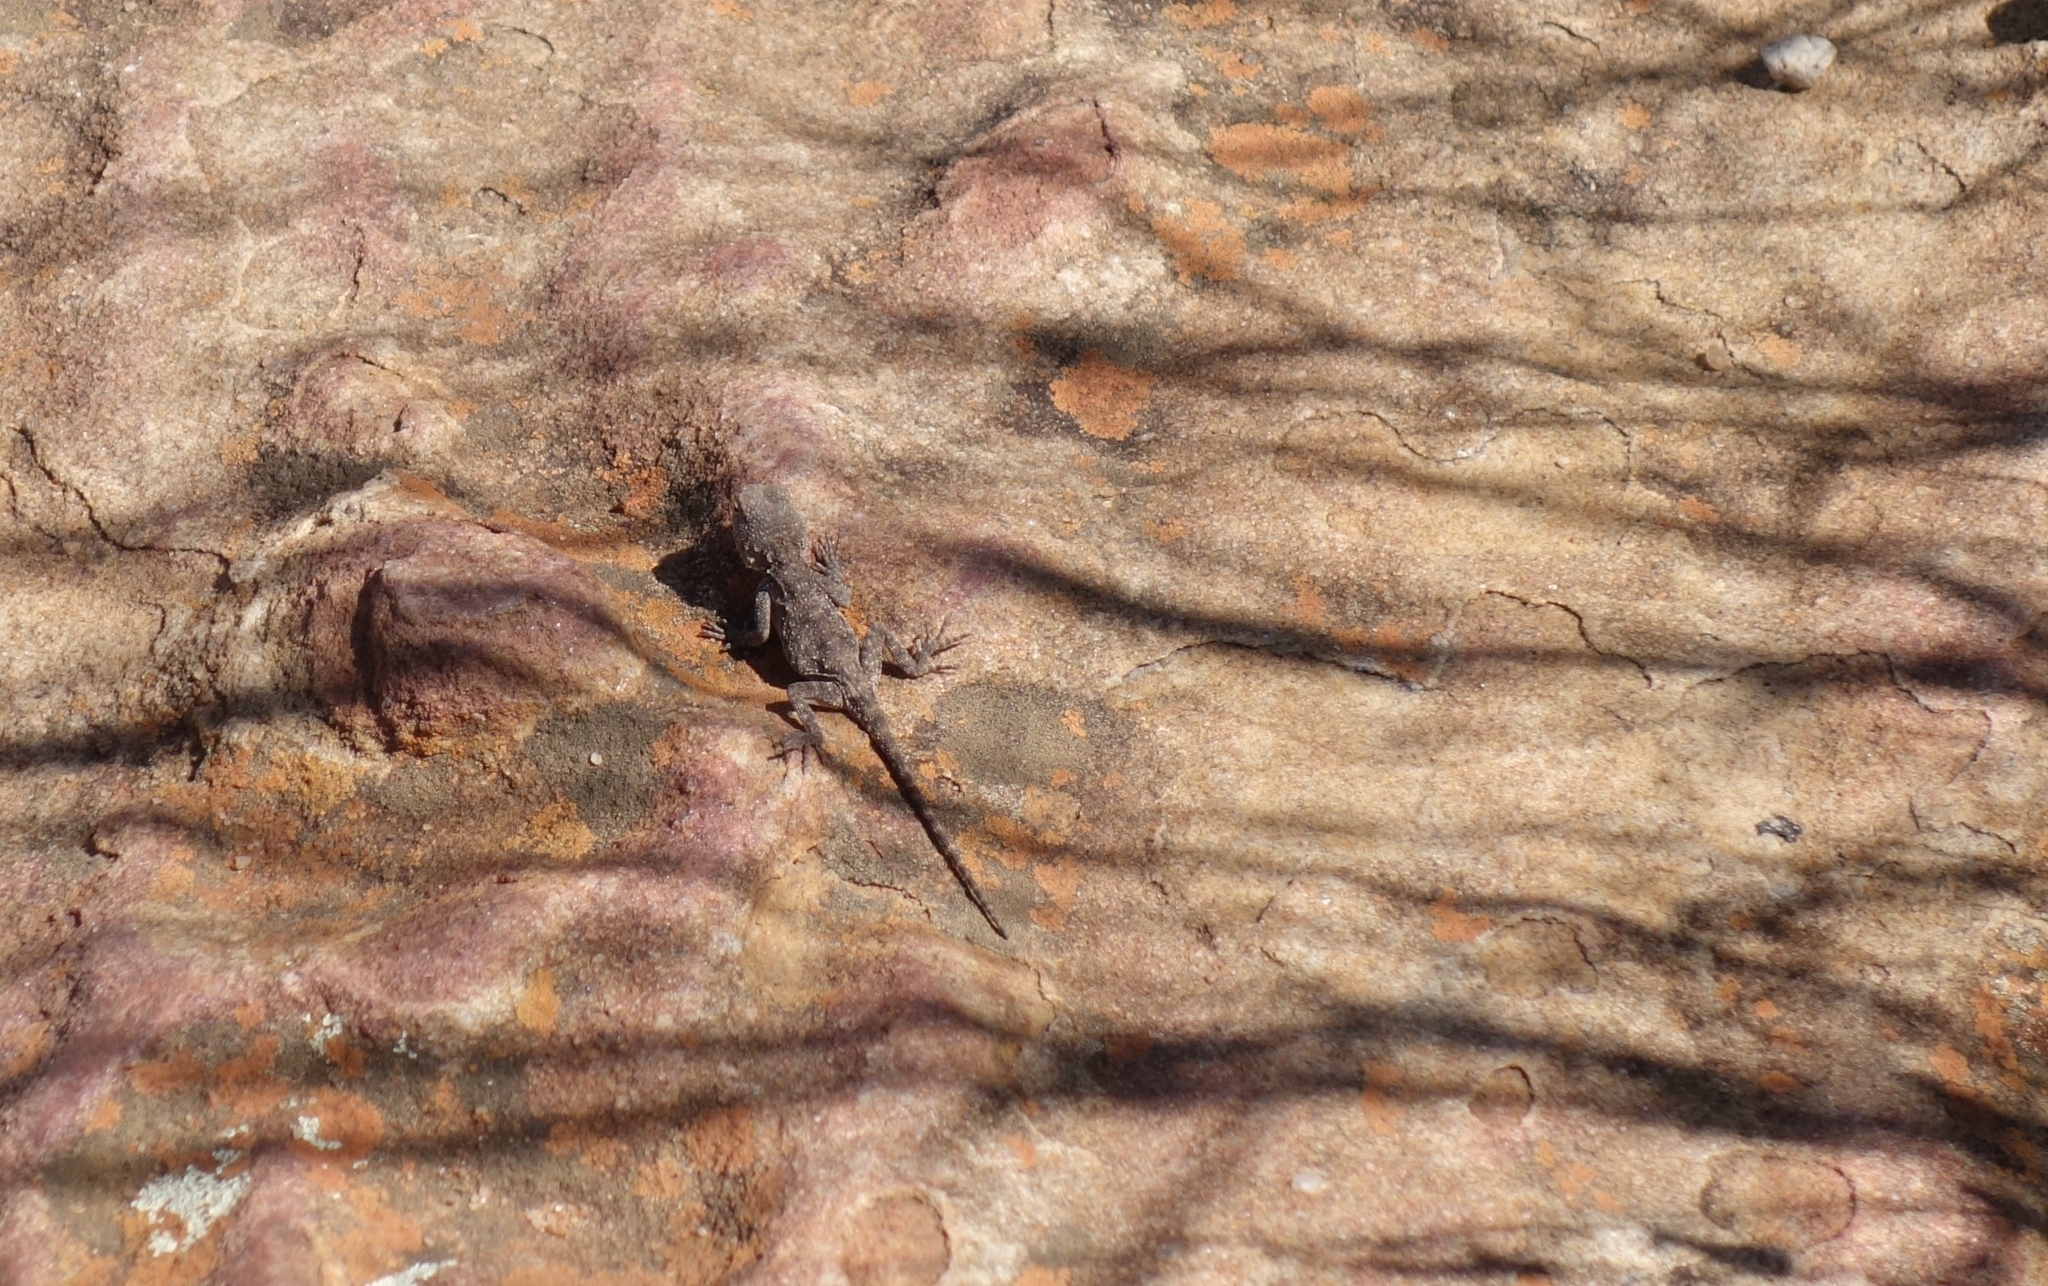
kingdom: Animalia
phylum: Chordata
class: Squamata
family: Agamidae
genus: Agama
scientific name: Agama atra
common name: Southern african rock agama
